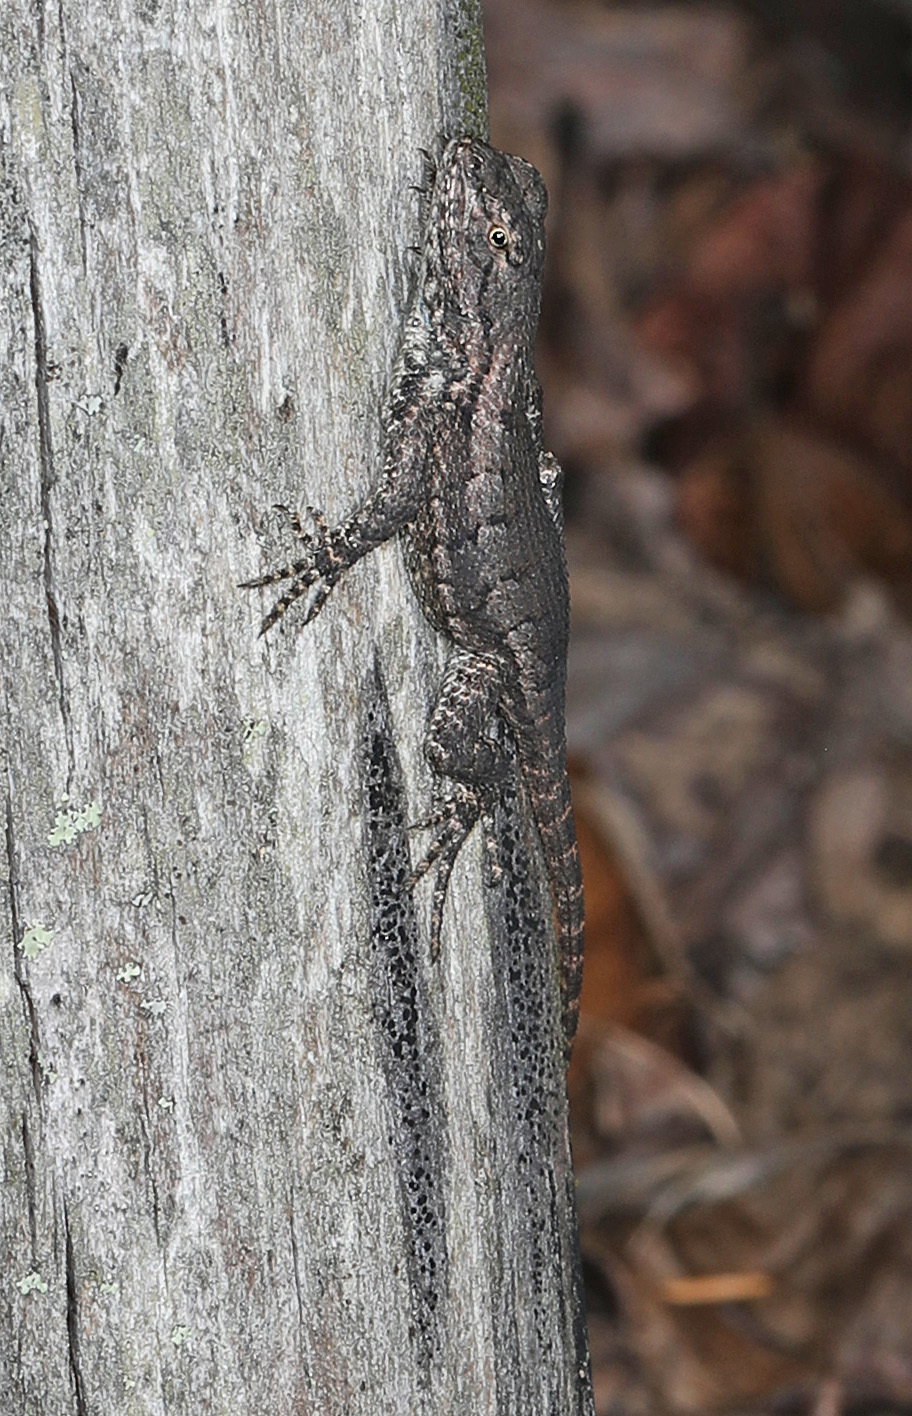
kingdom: Animalia
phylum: Chordata
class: Squamata
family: Phrynosomatidae
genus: Sceloporus
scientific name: Sceloporus undulatus
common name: Eastern fence lizard
